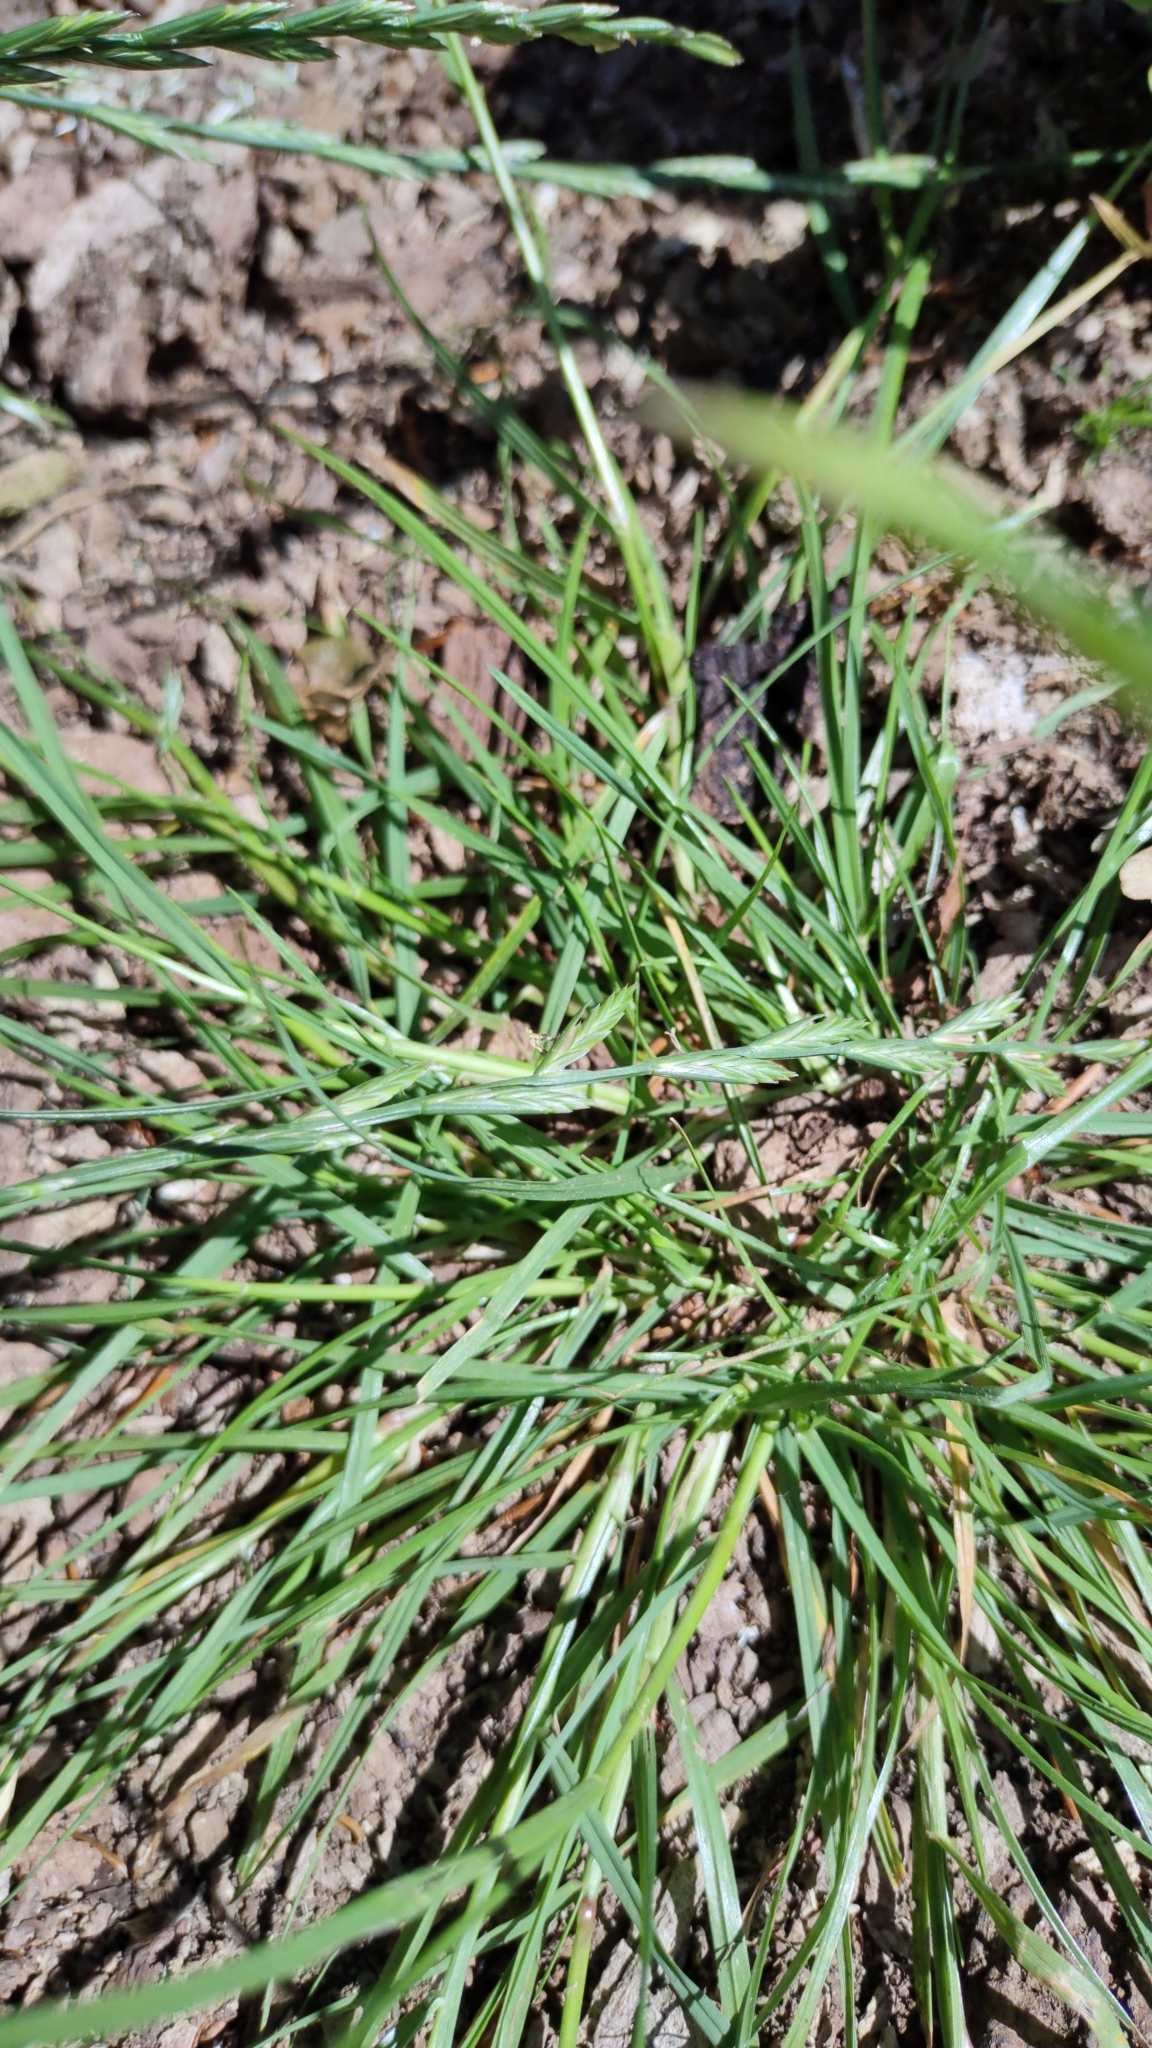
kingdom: Plantae
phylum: Tracheophyta
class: Liliopsida
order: Poales
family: Poaceae
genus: Lolium
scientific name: Lolium perenne
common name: Perennial ryegrass
